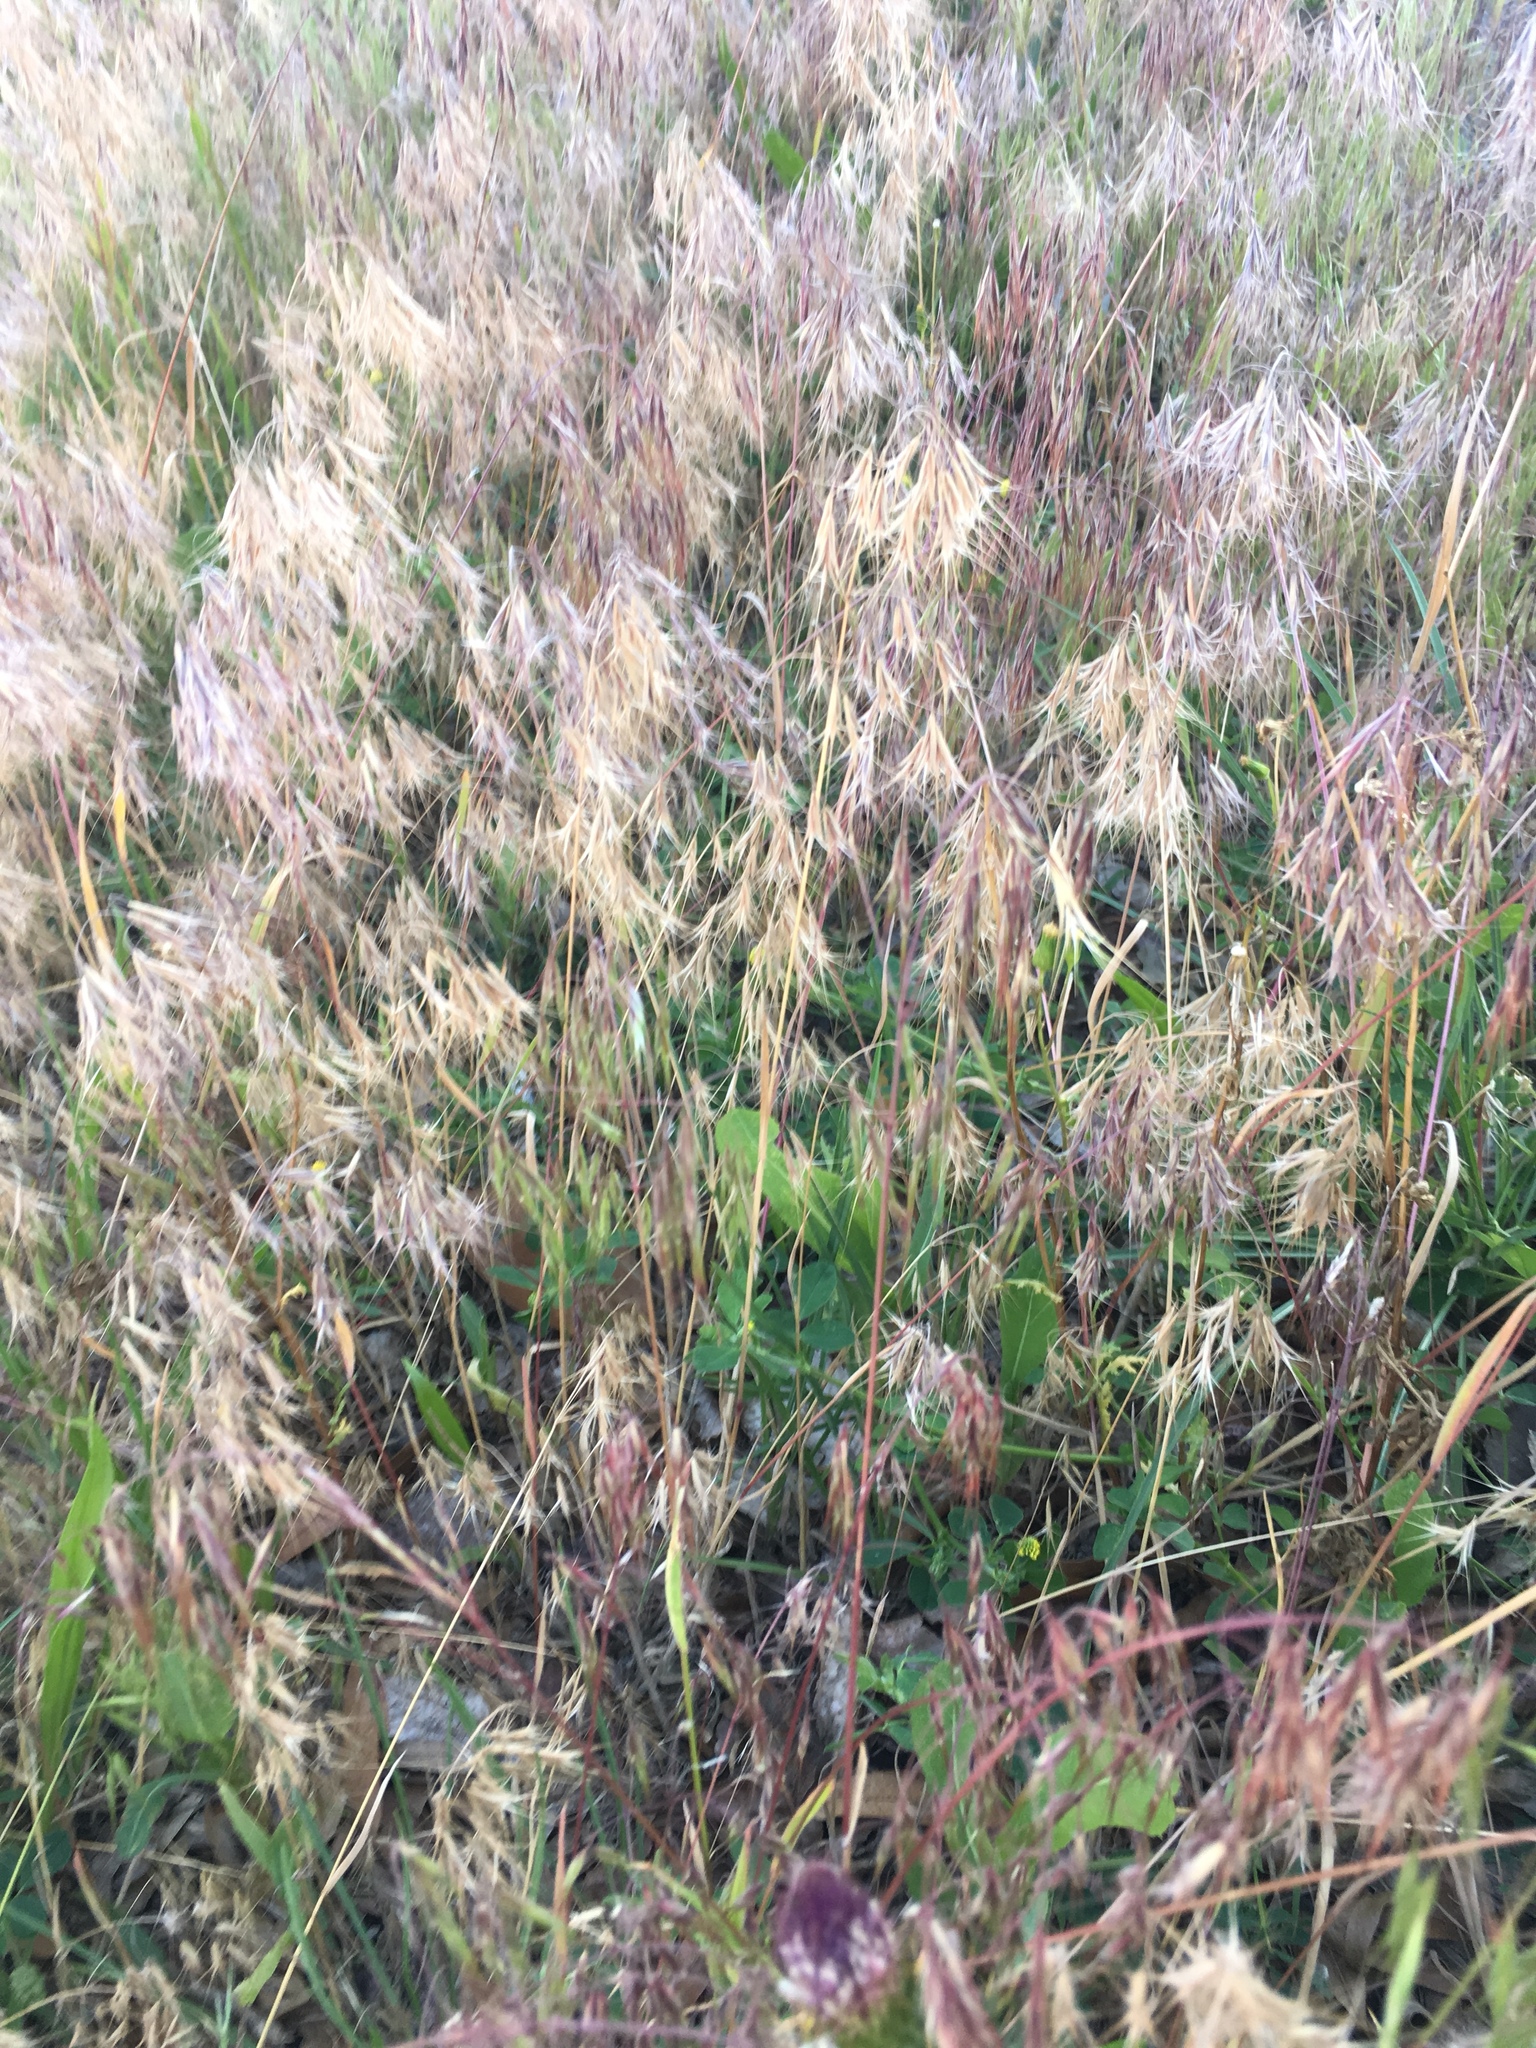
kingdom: Plantae
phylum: Tracheophyta
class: Liliopsida
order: Poales
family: Poaceae
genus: Bromus
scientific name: Bromus tectorum
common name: Cheatgrass
